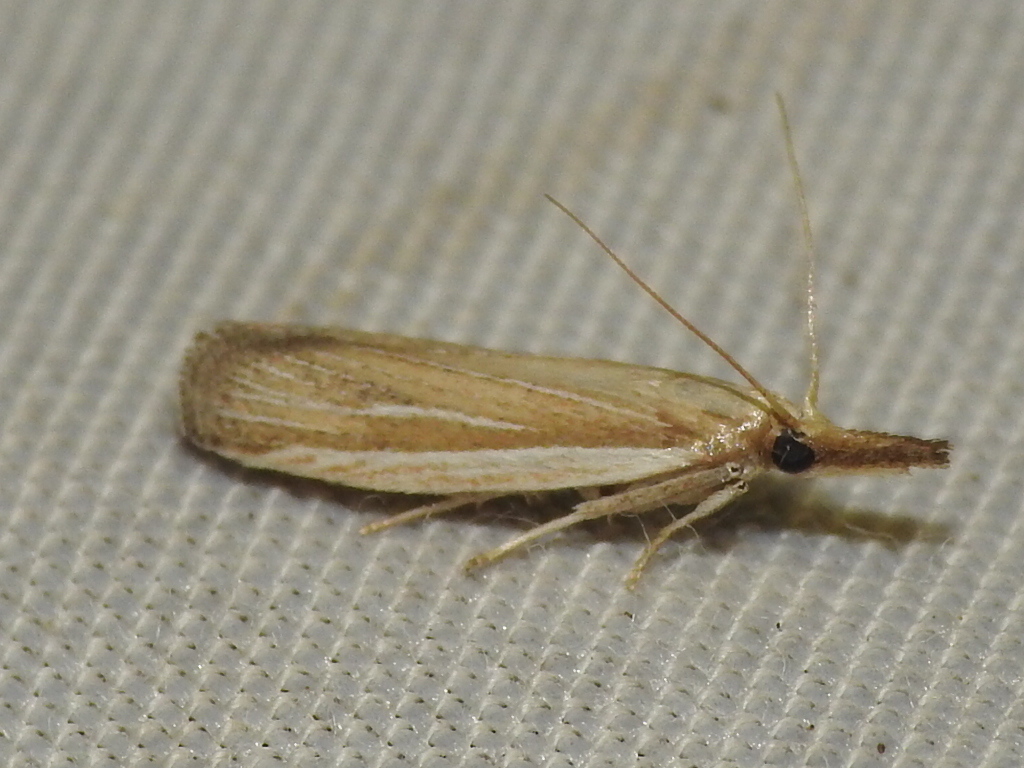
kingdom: Animalia
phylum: Arthropoda
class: Insecta
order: Lepidoptera
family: Pyralidae
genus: Peoria
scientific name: Peoria tetradella
